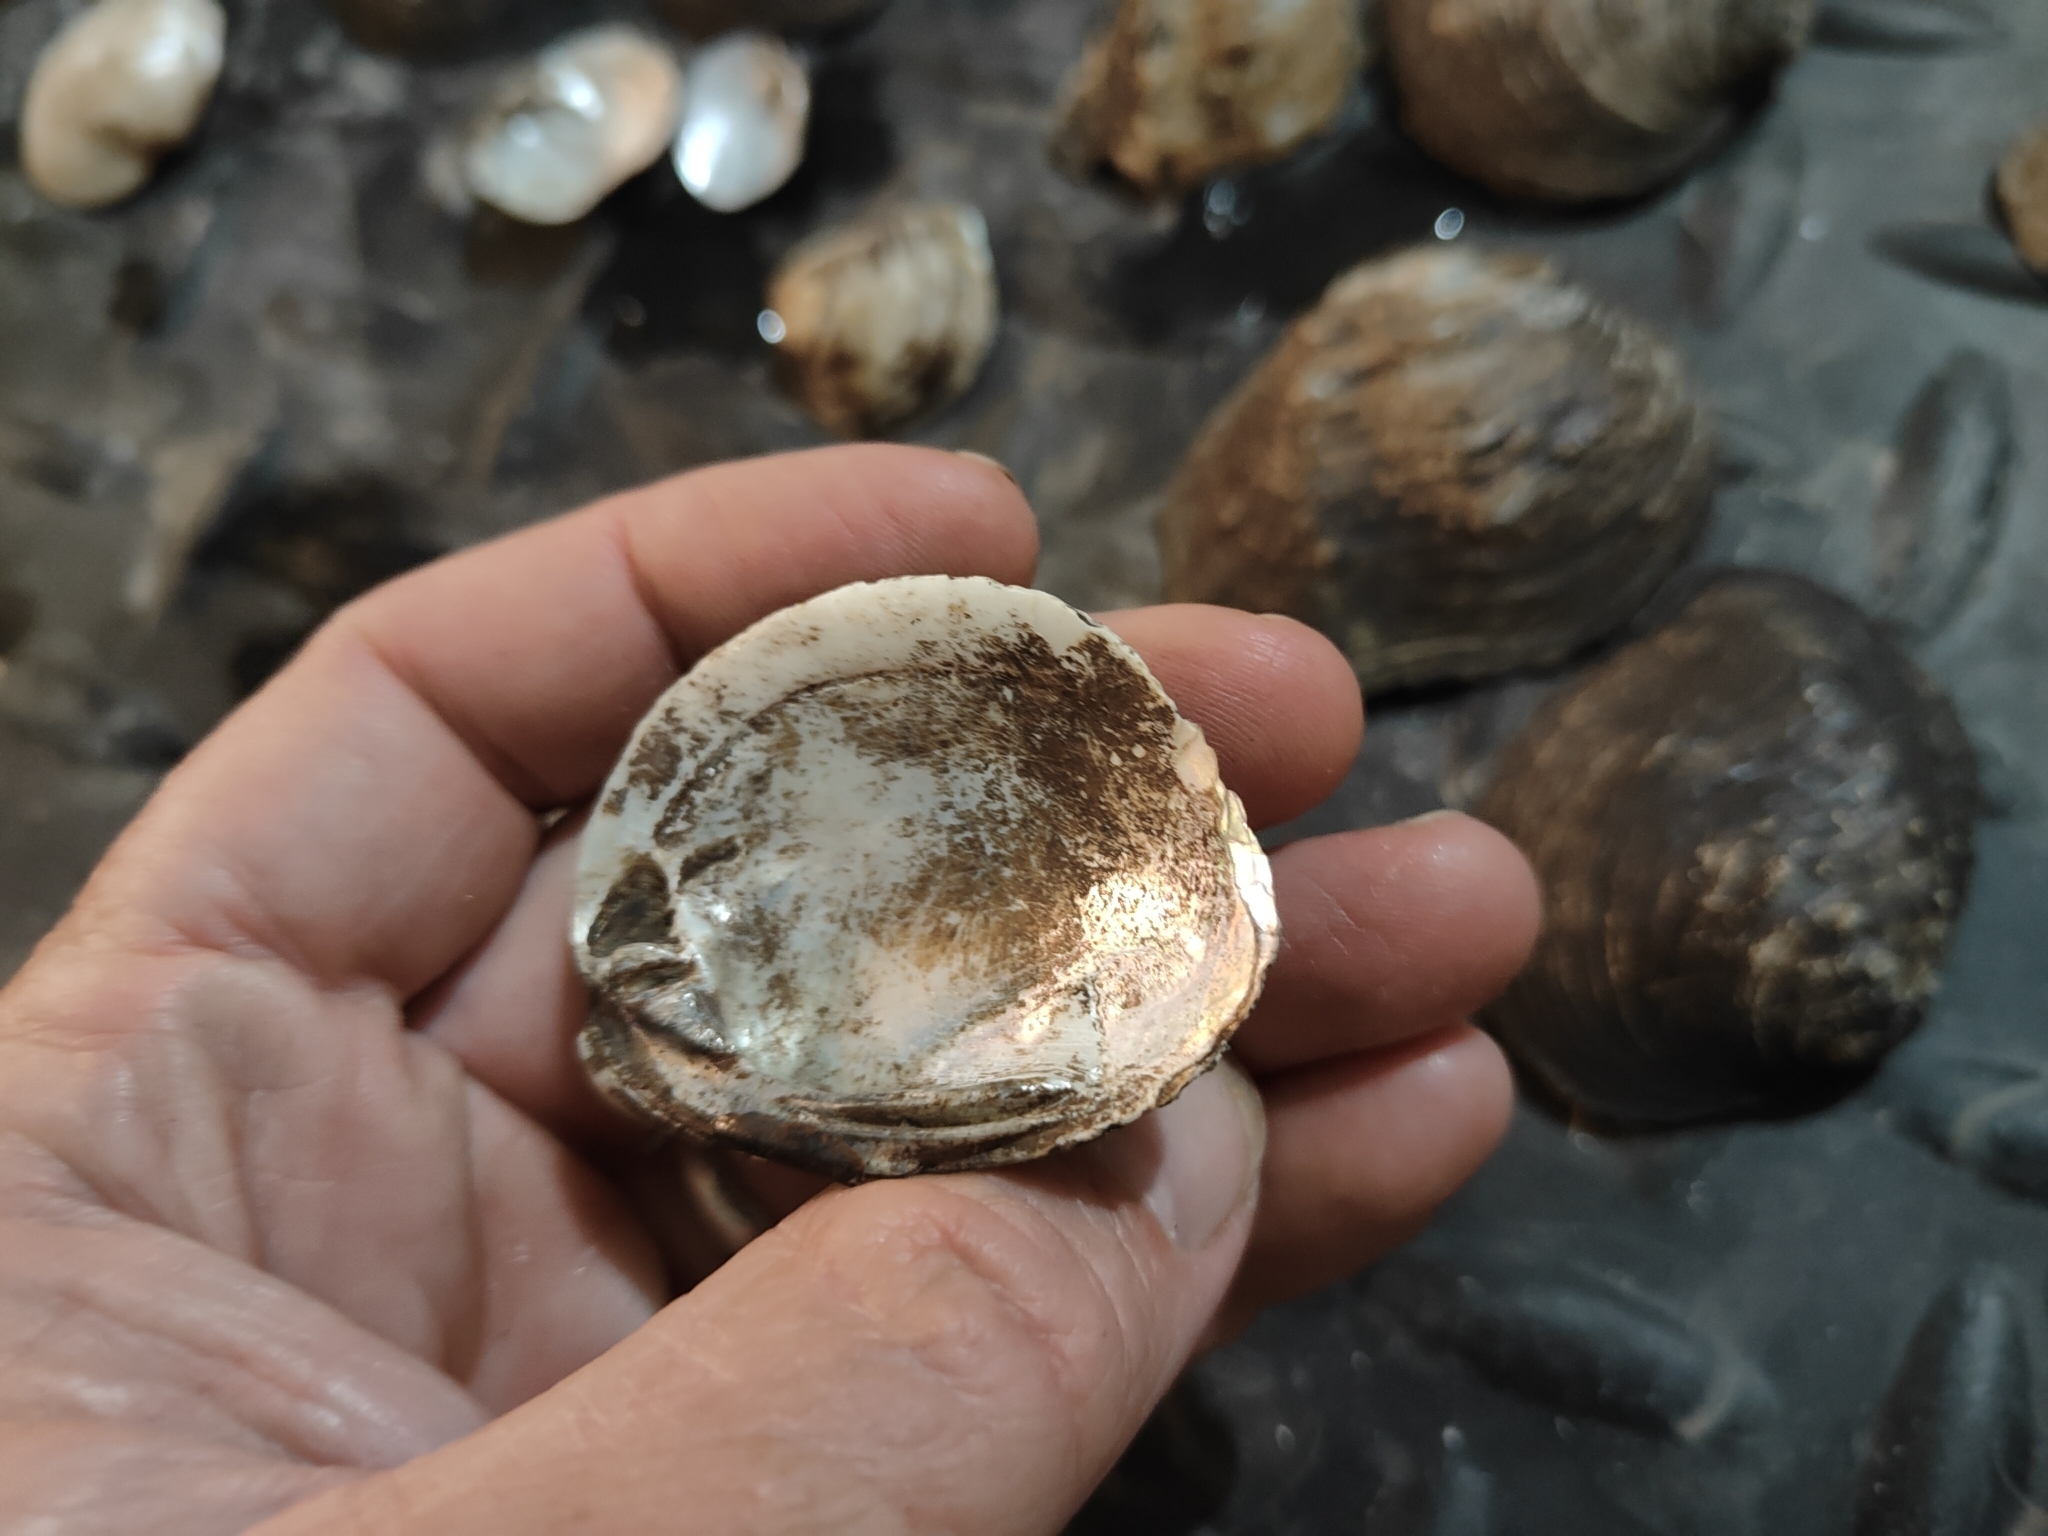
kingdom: Animalia
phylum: Mollusca
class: Bivalvia
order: Unionida
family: Unionidae
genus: Obovaria
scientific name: Obovaria olivaria
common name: Hickorynut
